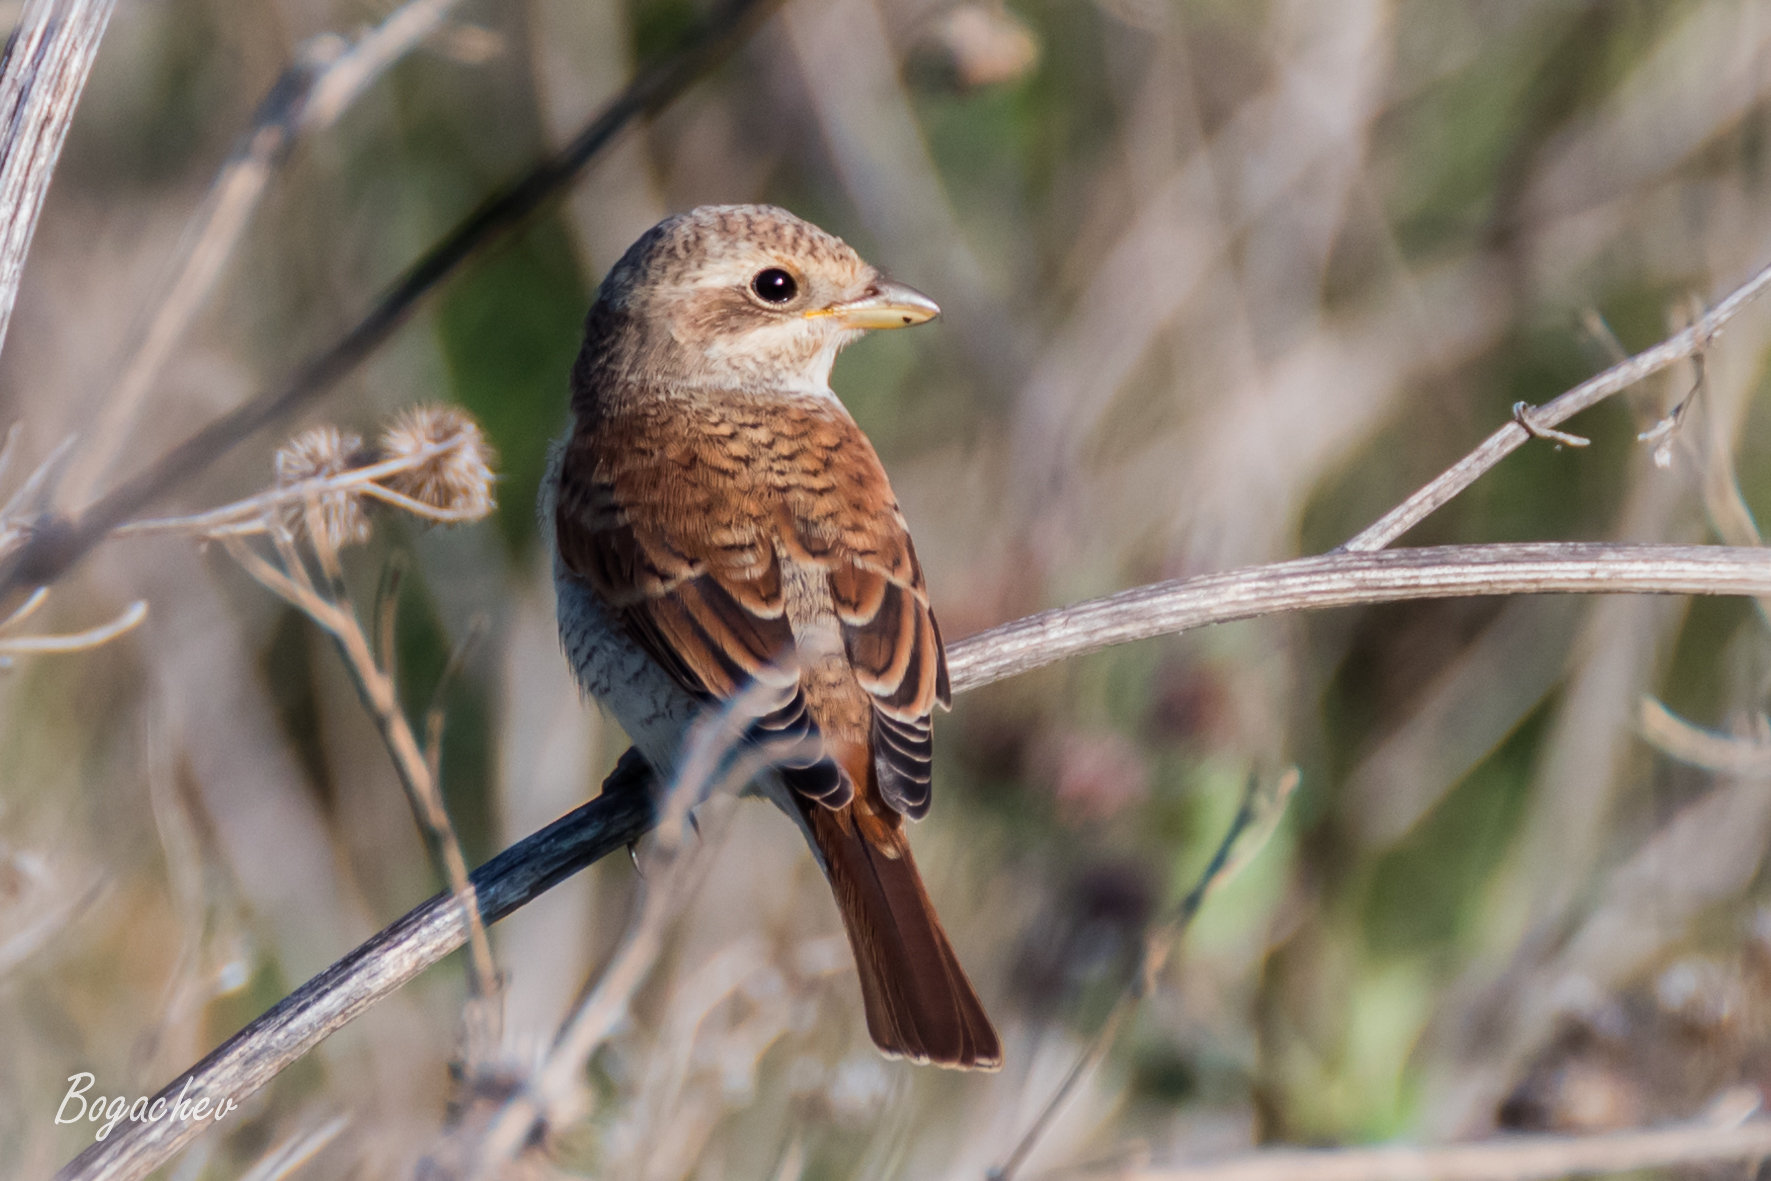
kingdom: Animalia
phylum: Chordata
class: Aves
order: Passeriformes
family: Laniidae
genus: Lanius
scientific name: Lanius collurio
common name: Red-backed shrike
